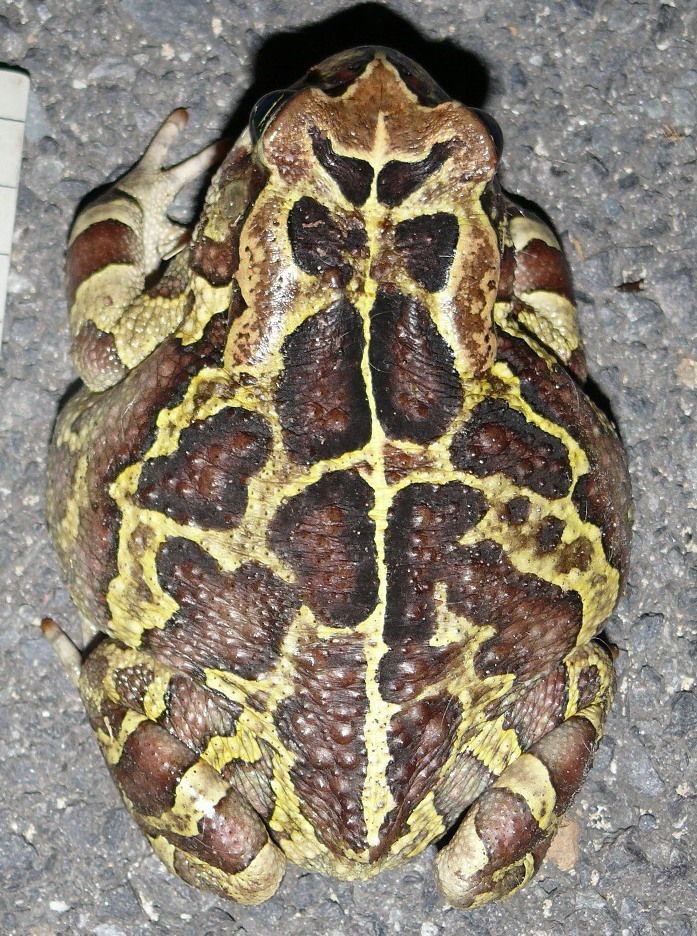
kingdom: Animalia
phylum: Chordata
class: Amphibia
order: Anura
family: Bufonidae
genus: Sclerophrys
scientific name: Sclerophrys pantherina
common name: Panther toad
